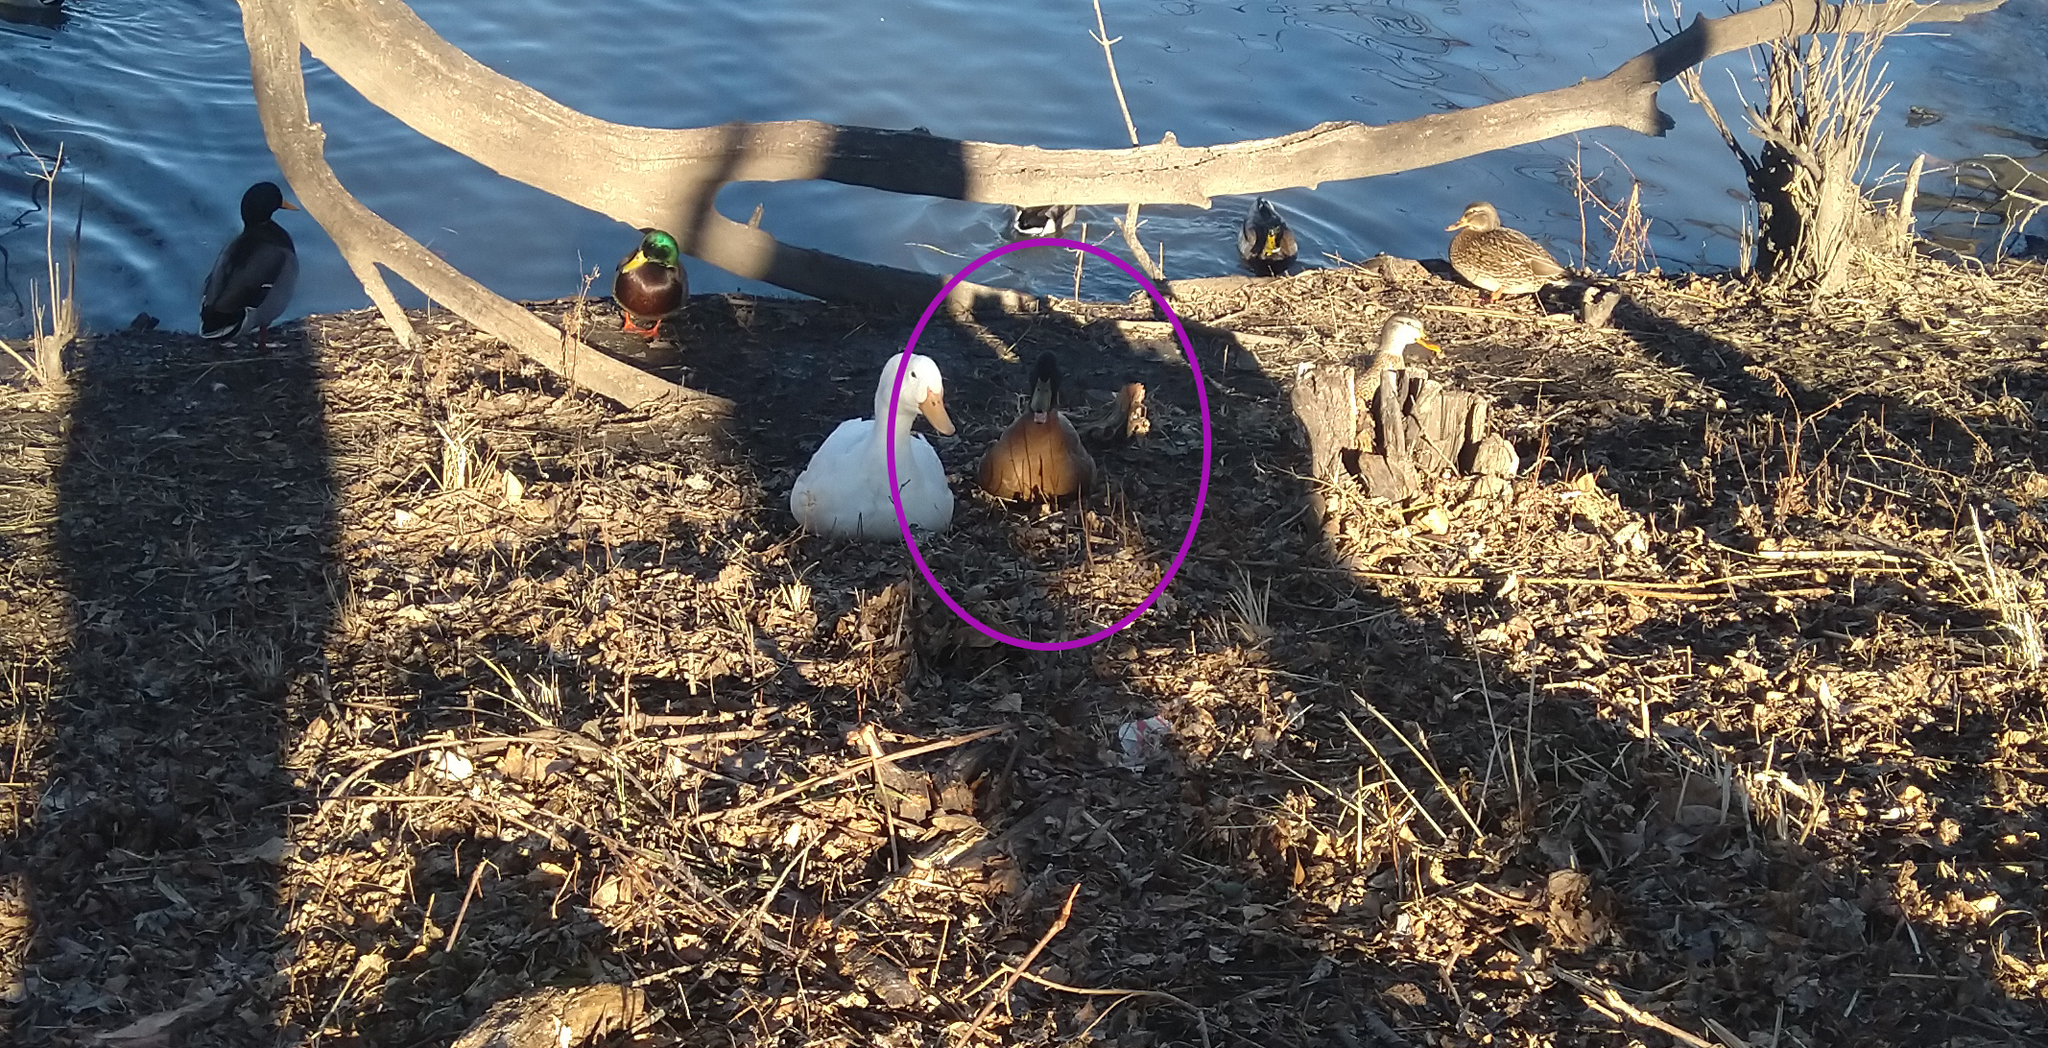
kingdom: Animalia
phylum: Chordata
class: Aves
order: Anseriformes
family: Anatidae
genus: Anas
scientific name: Anas platyrhynchos
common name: Mallard
